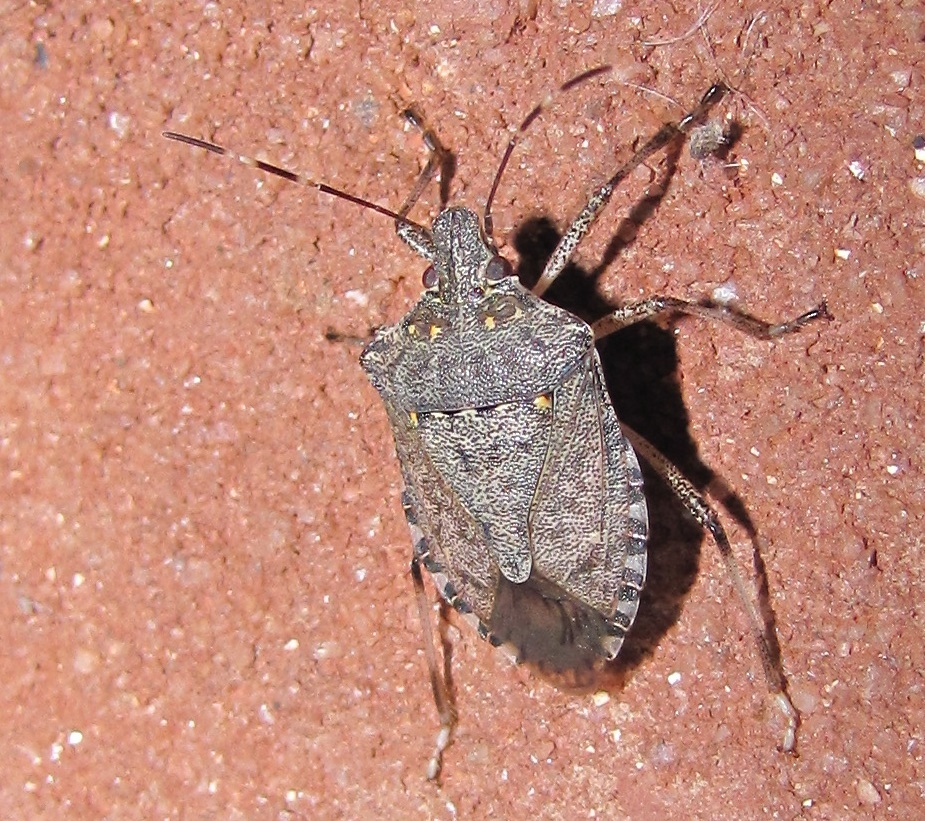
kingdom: Animalia
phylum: Arthropoda
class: Insecta
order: Hemiptera
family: Pentatomidae
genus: Halyomorpha
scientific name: Halyomorpha halys
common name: Brown marmorated stink bug
